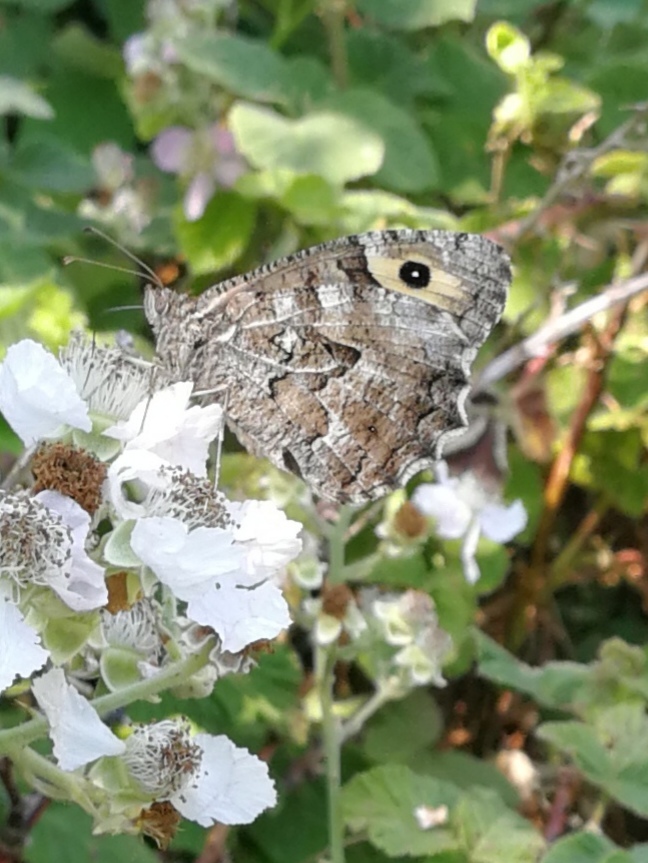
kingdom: Animalia
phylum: Arthropoda
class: Insecta
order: Lepidoptera
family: Nymphalidae
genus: Hipparchia
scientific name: Hipparchia semele
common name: Grayling
